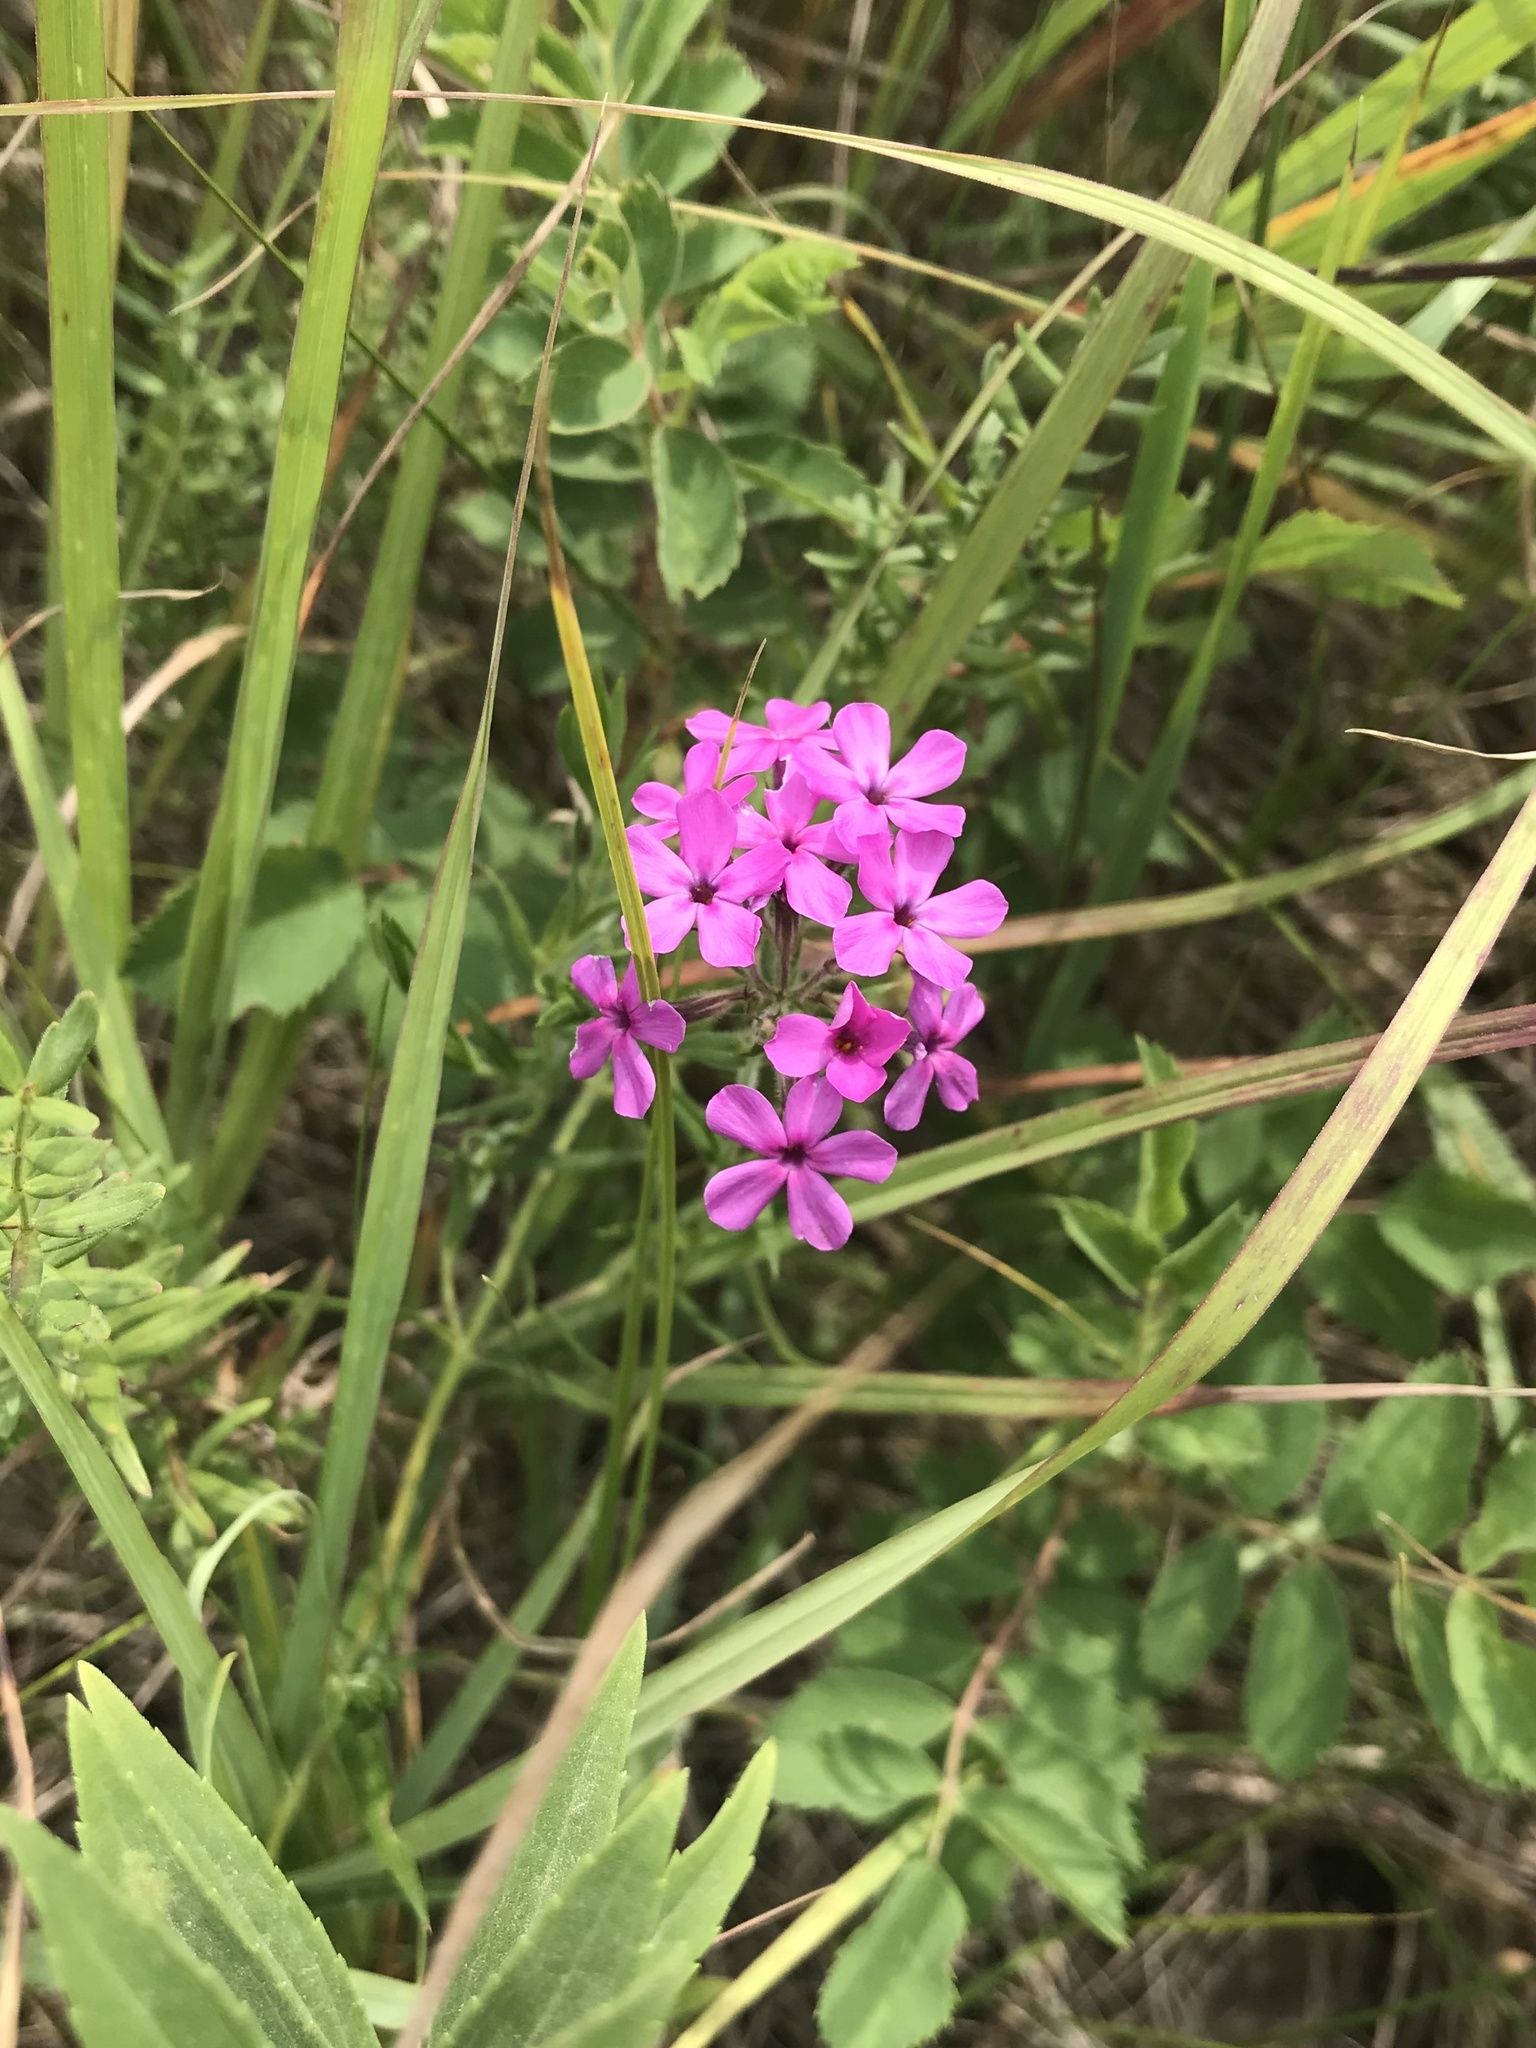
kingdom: Plantae
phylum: Tracheophyta
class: Magnoliopsida
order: Ericales
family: Polemoniaceae
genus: Phlox
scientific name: Phlox pilosa
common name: Prairie phlox
